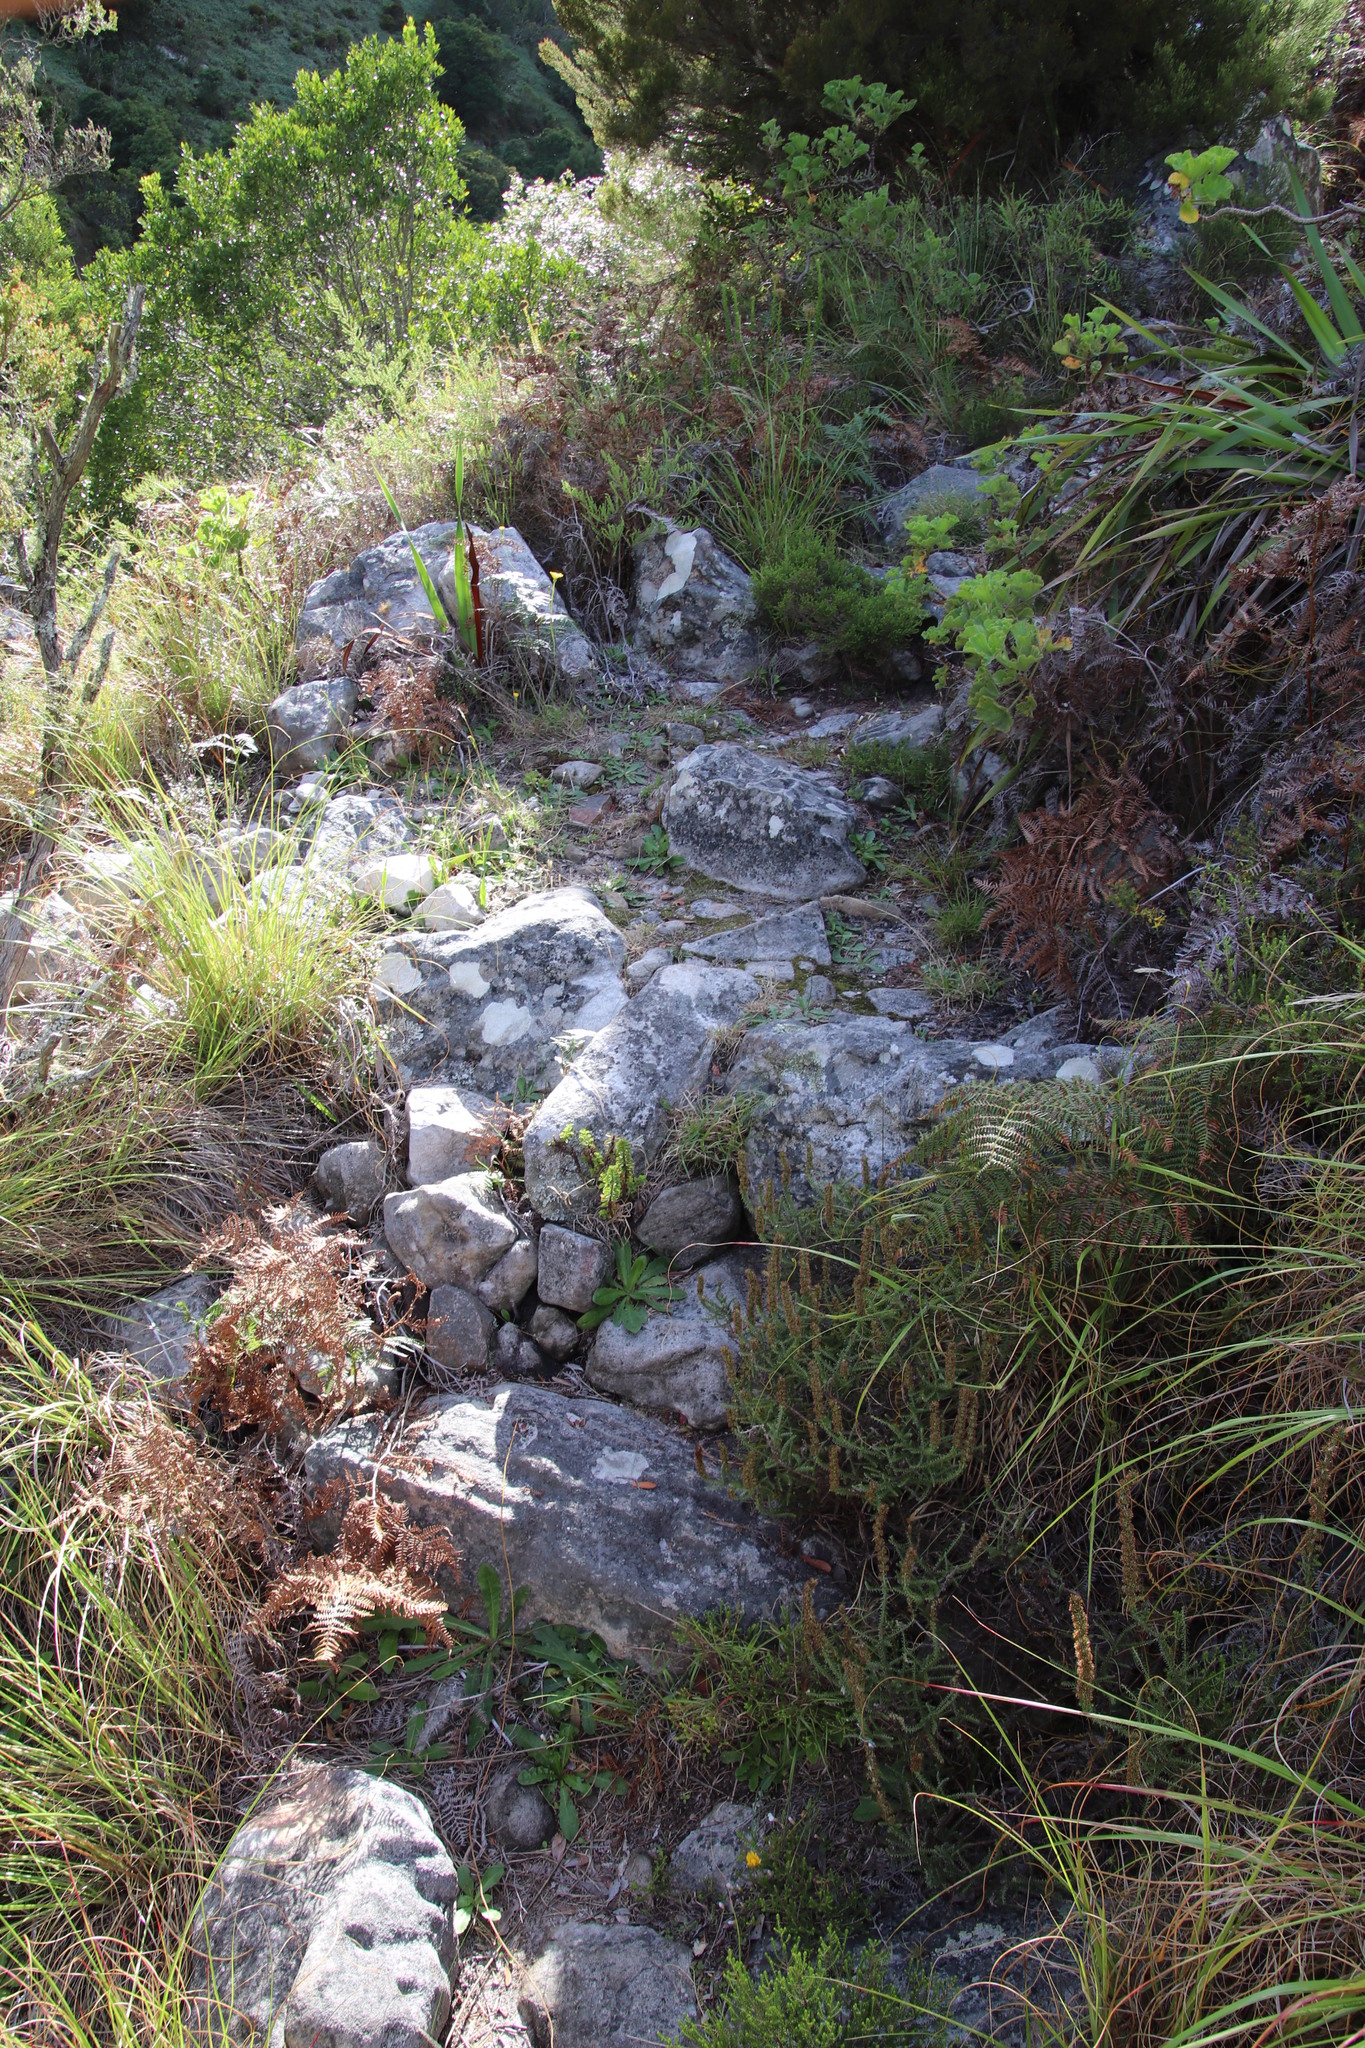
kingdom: Plantae
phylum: Tracheophyta
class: Magnoliopsida
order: Oxalidales
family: Oxalidaceae
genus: Oxalis
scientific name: Oxalis punctata
